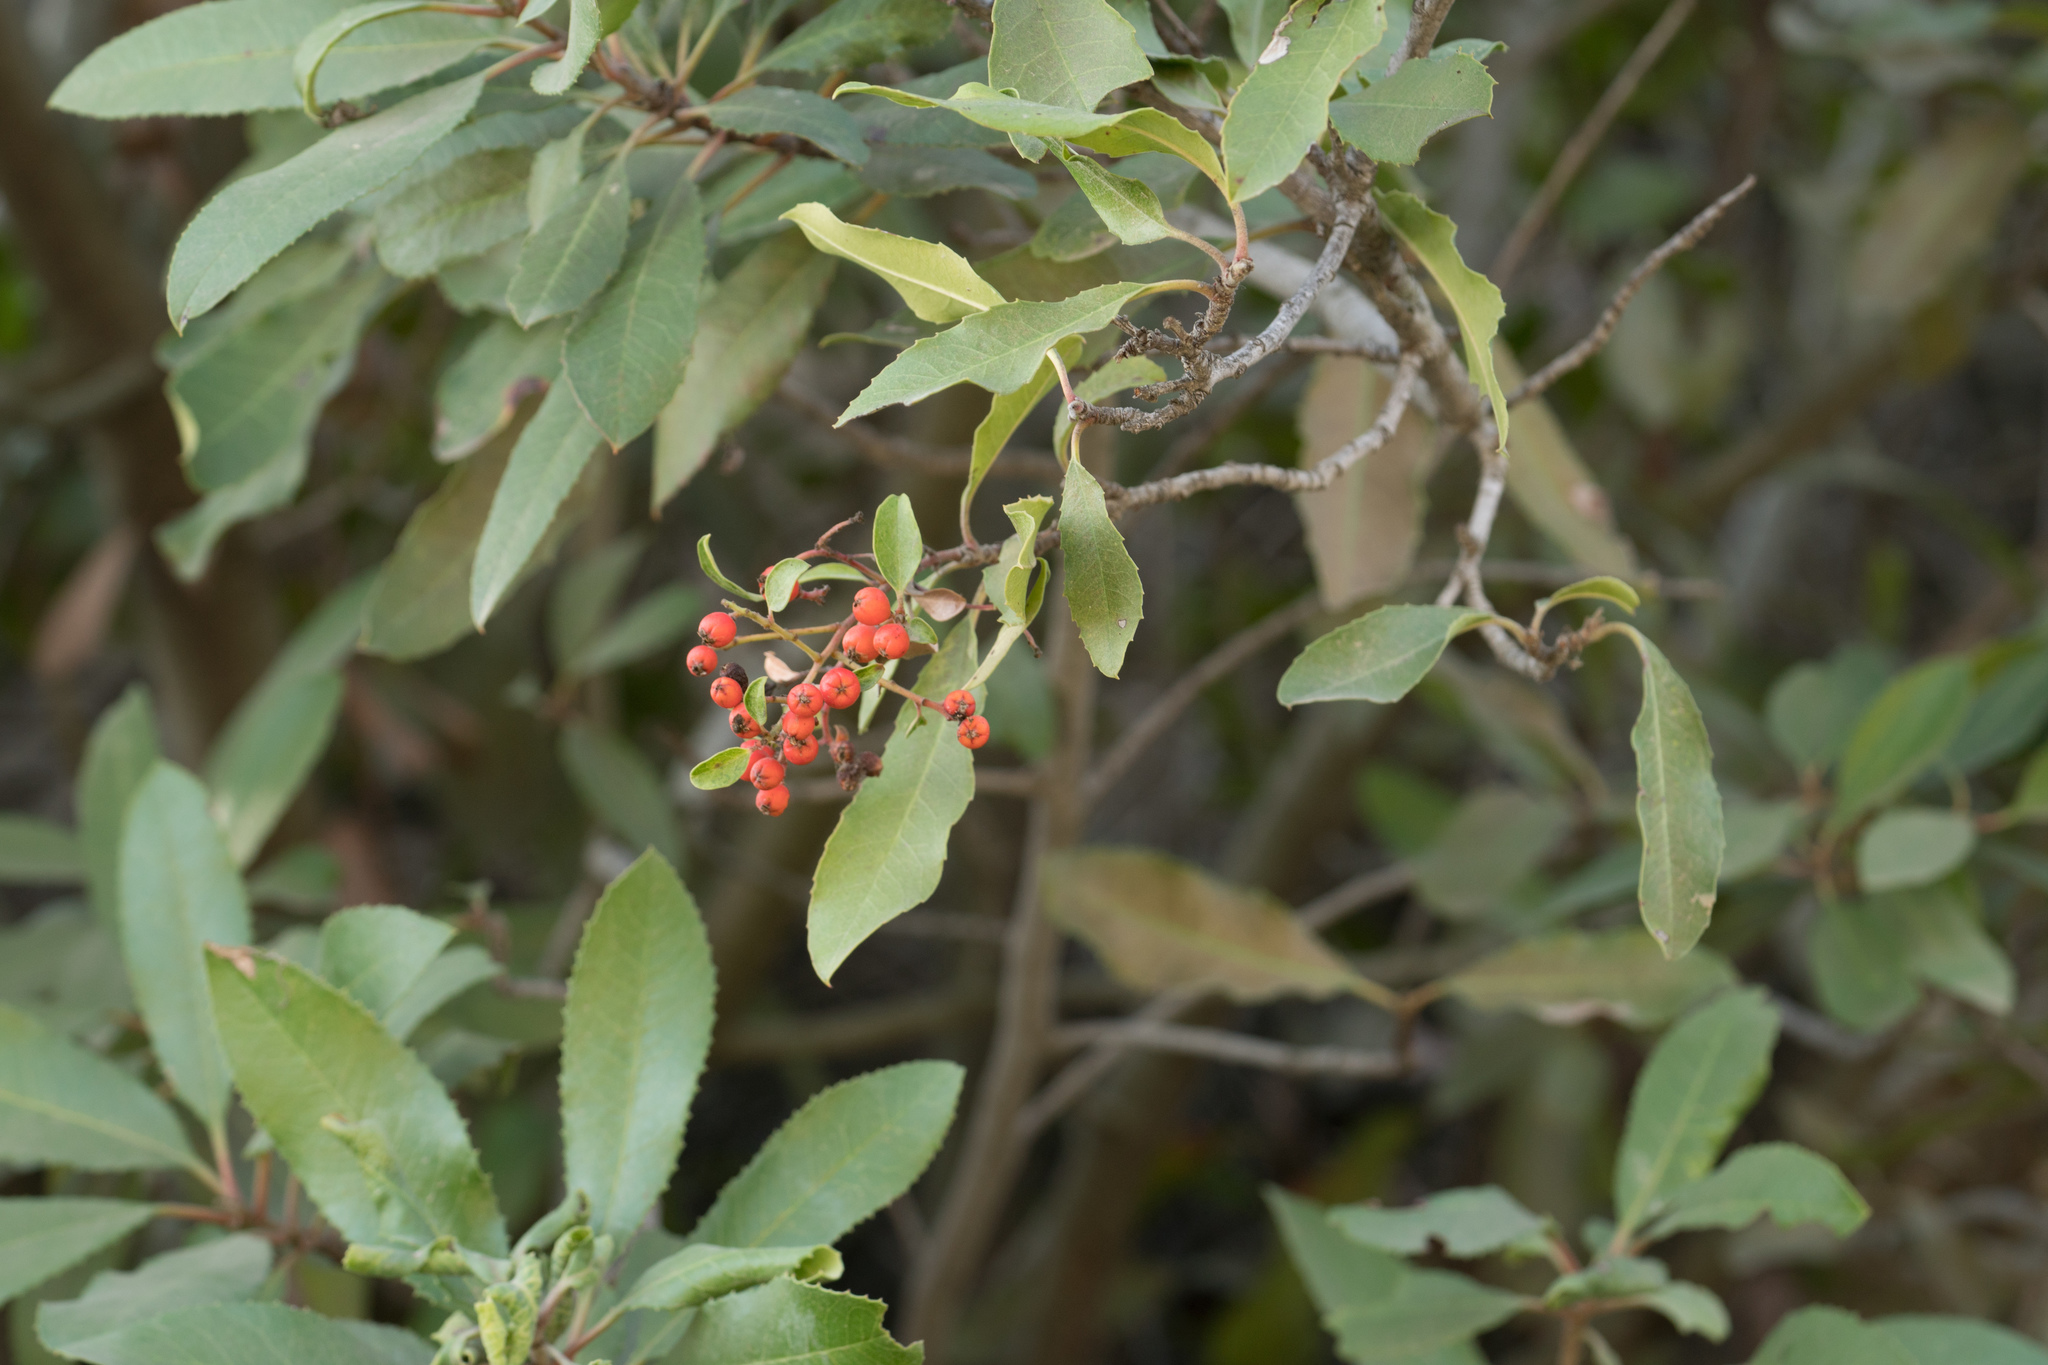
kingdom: Plantae
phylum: Tracheophyta
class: Magnoliopsida
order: Rosales
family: Rosaceae
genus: Heteromeles
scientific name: Heteromeles arbutifolia
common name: California-holly
